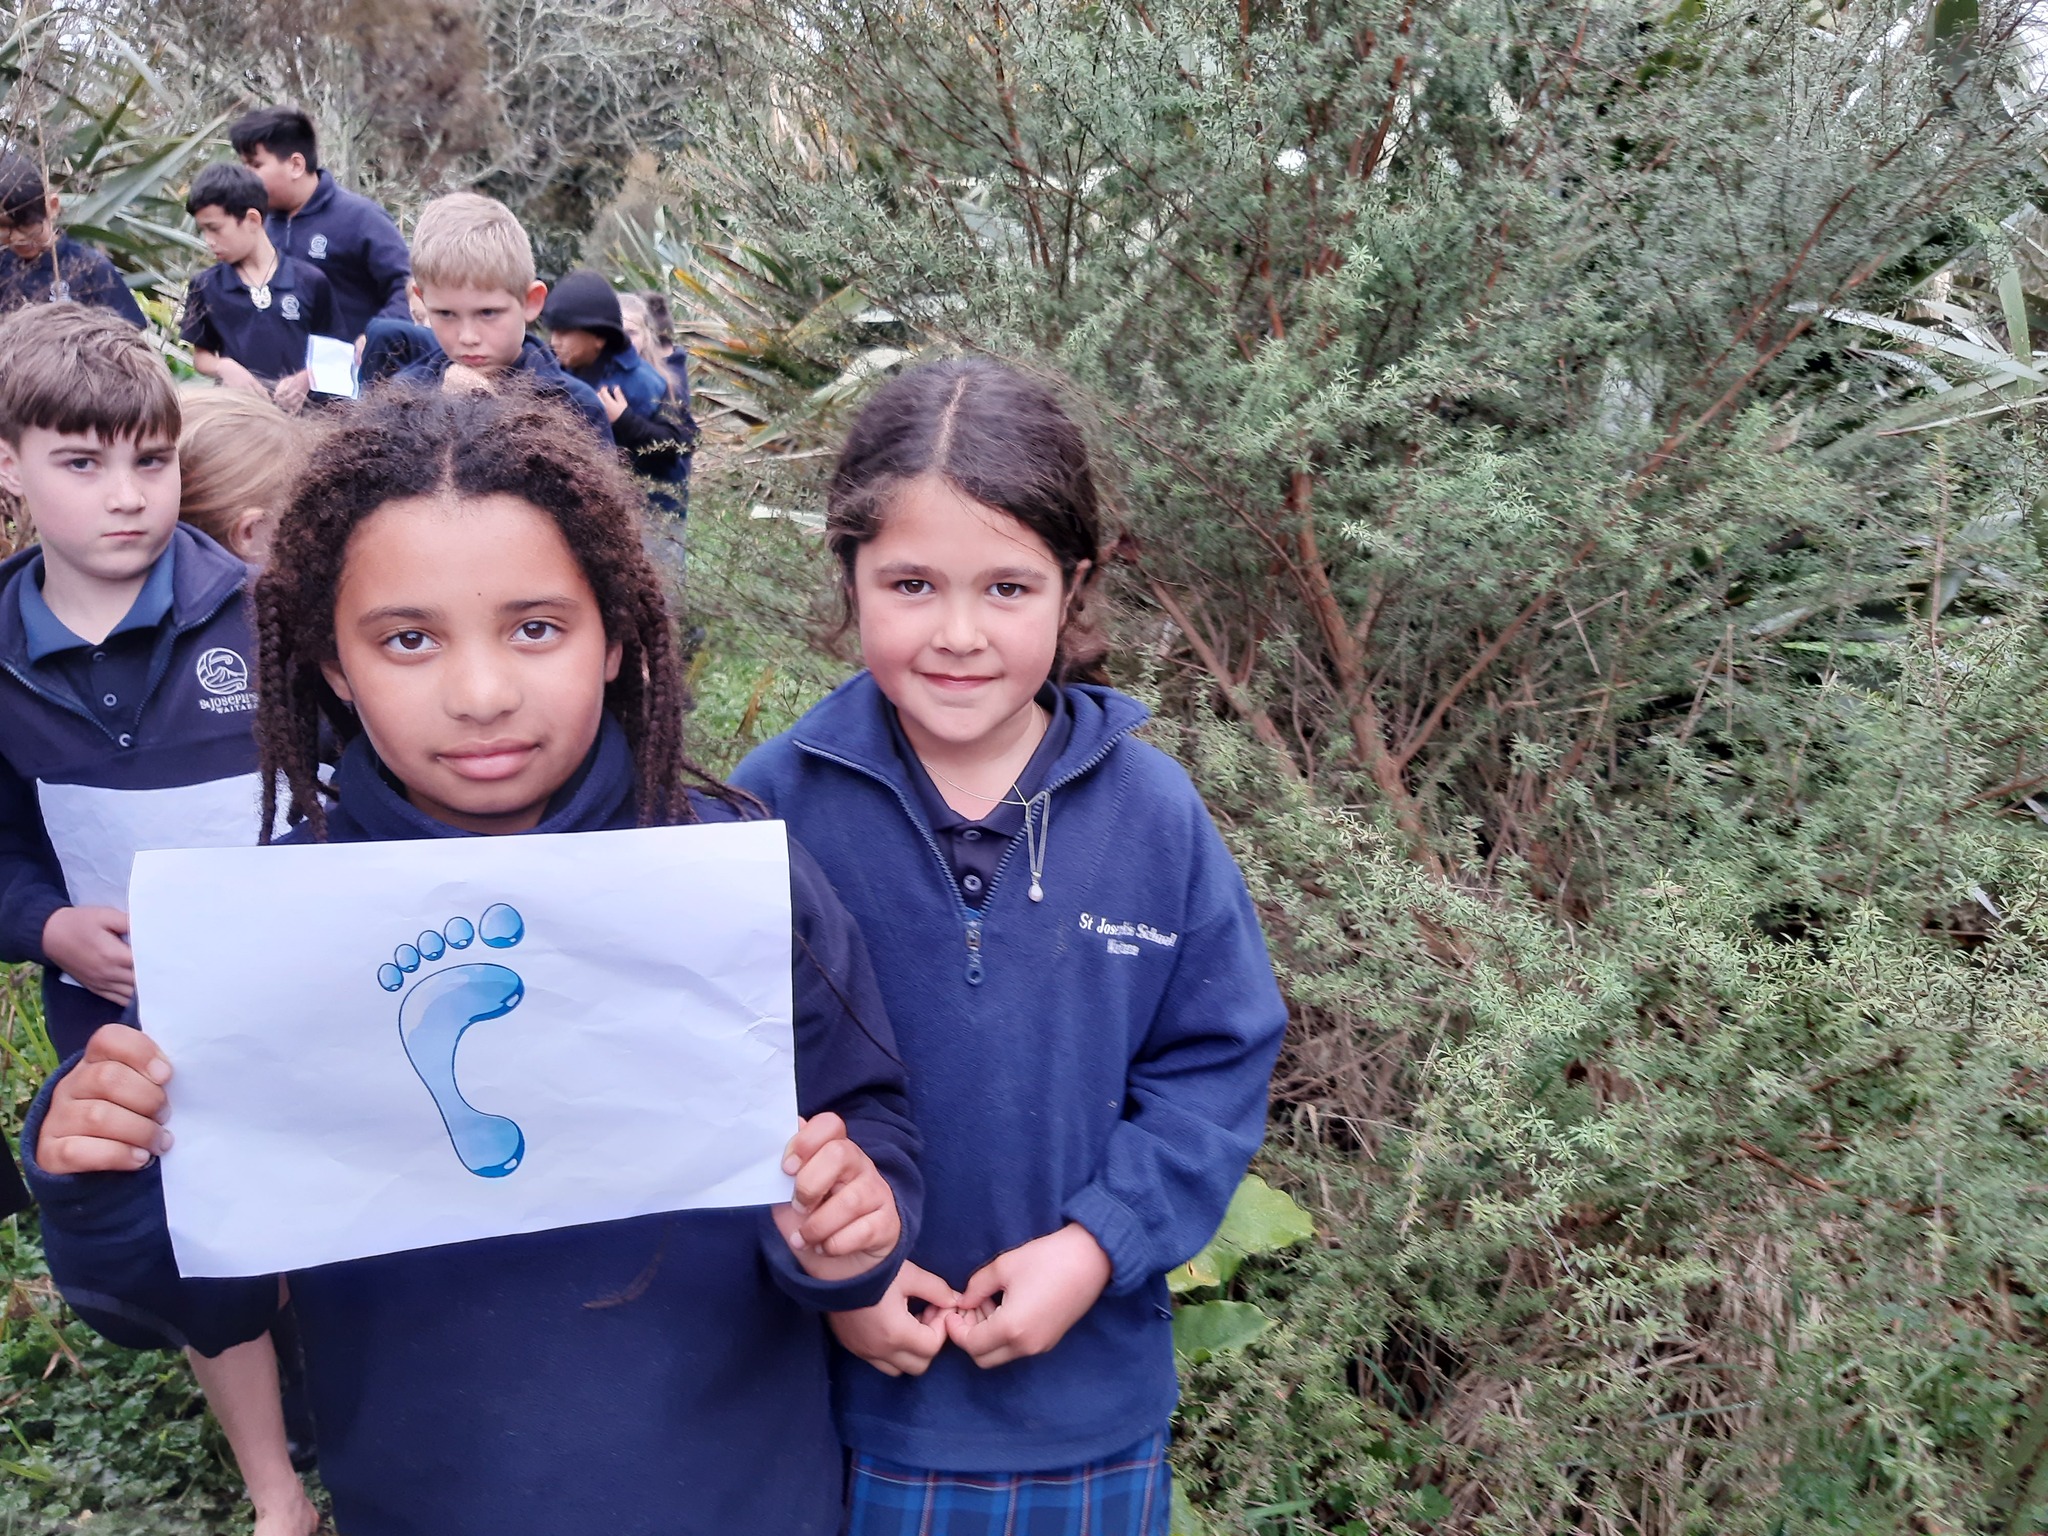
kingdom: Plantae
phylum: Tracheophyta
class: Magnoliopsida
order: Myrtales
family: Myrtaceae
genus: Leptospermum
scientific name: Leptospermum scoparium
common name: Broom tea-tree
